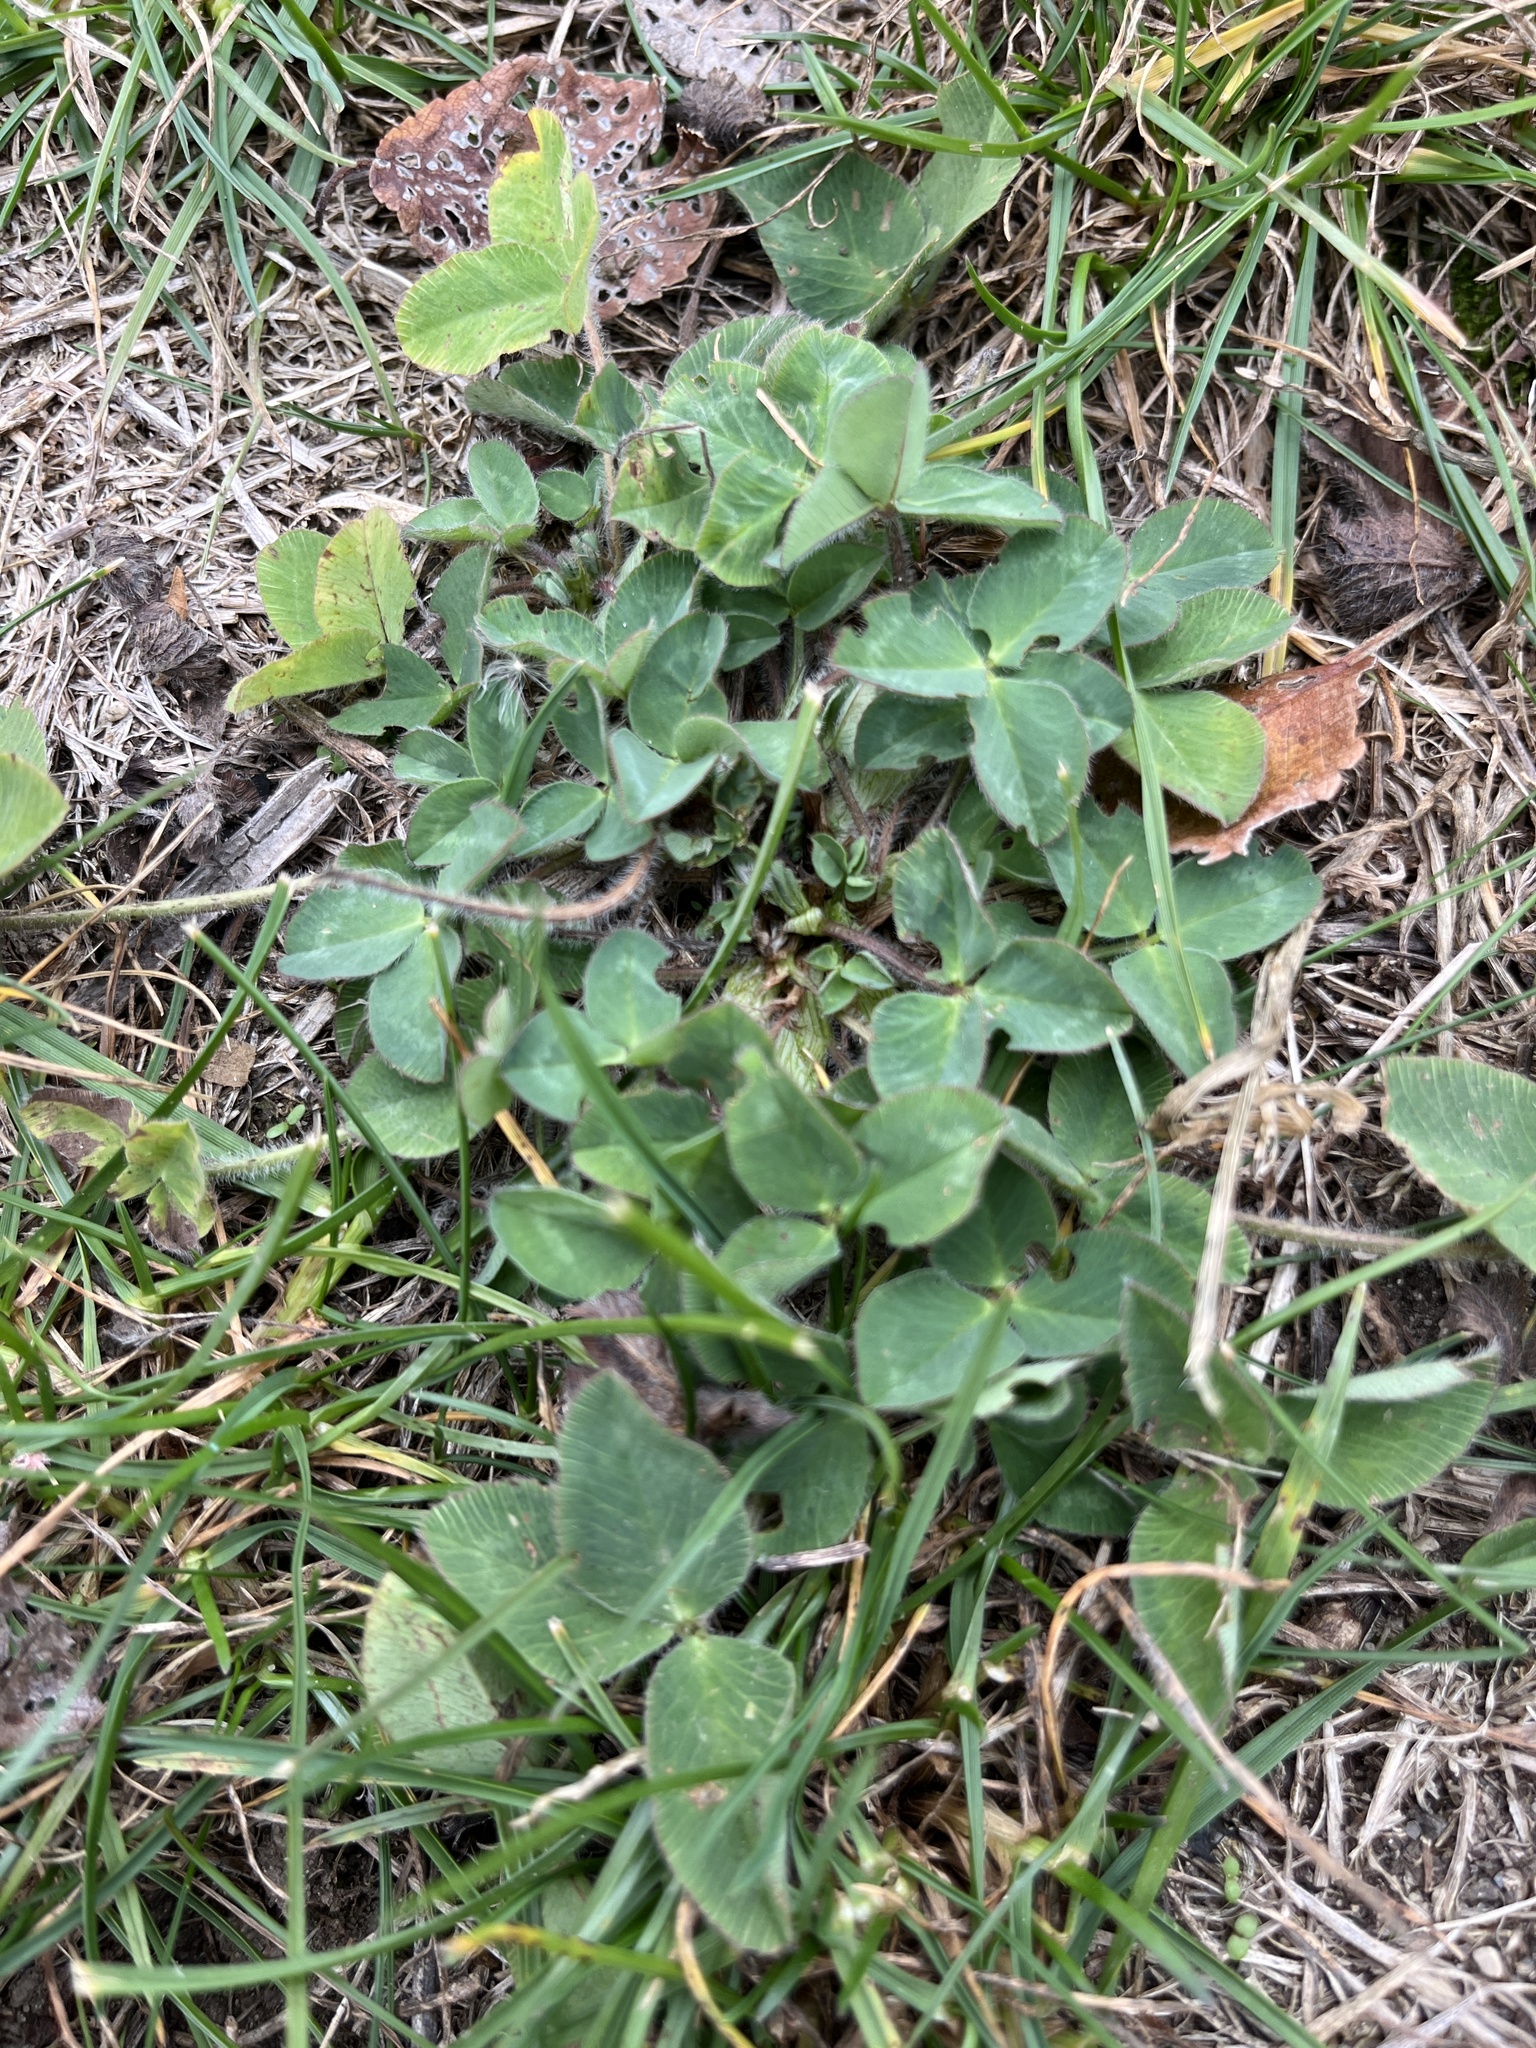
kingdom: Plantae
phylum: Tracheophyta
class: Magnoliopsida
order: Fabales
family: Fabaceae
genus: Trifolium
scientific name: Trifolium pratense
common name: Red clover
